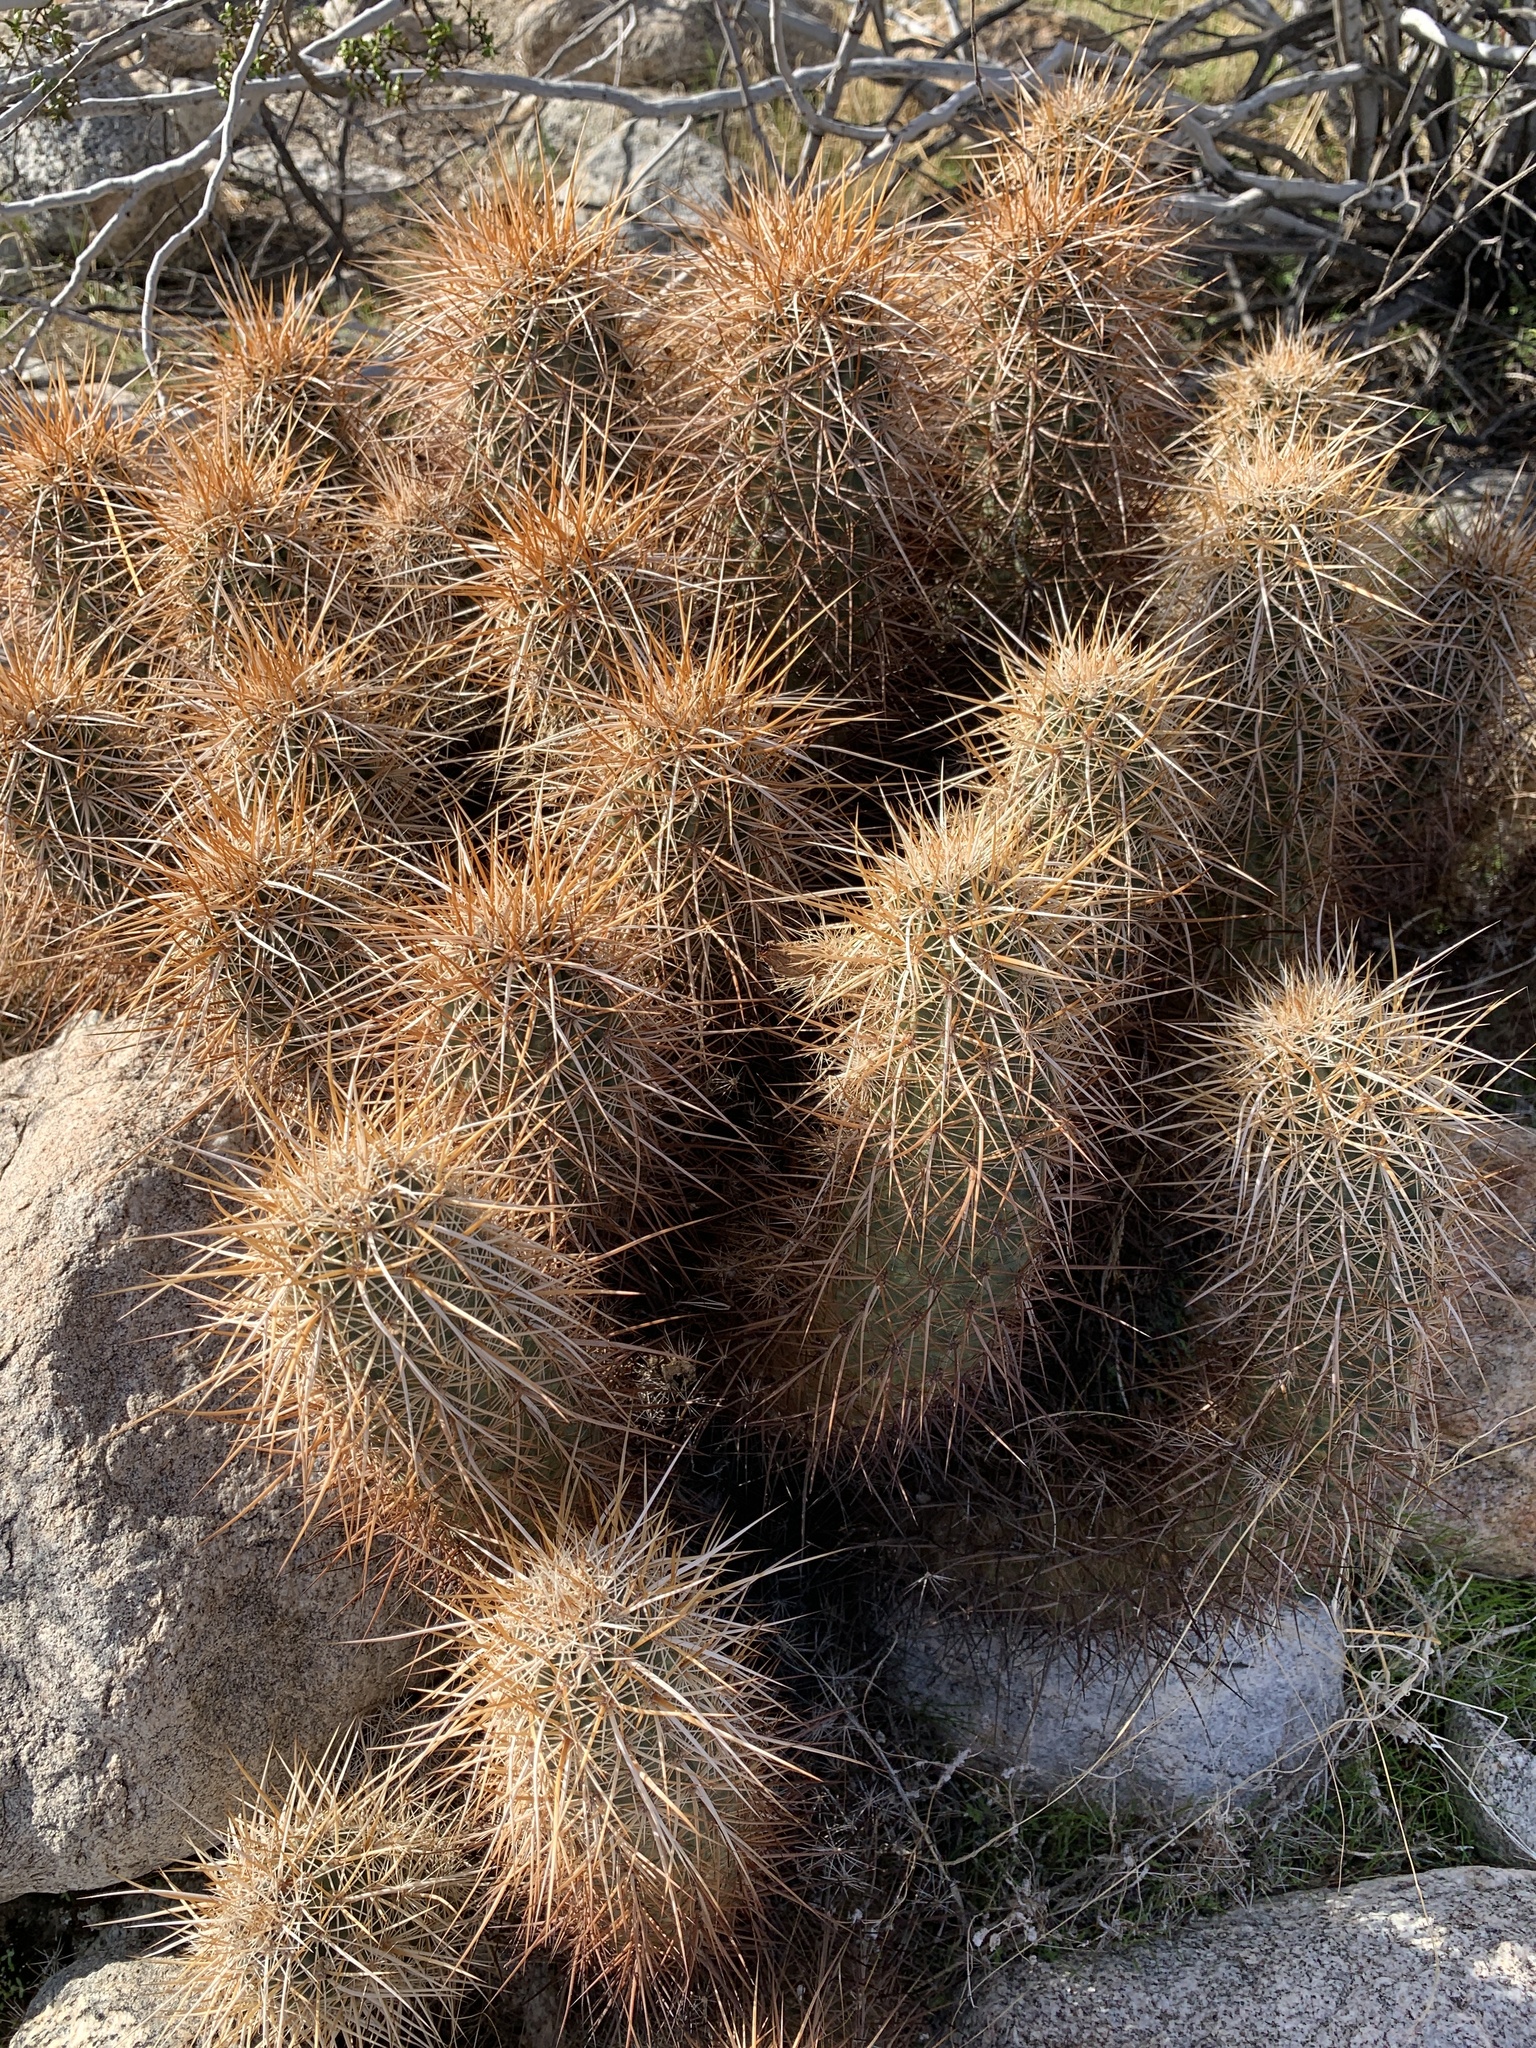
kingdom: Plantae
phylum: Tracheophyta
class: Magnoliopsida
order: Caryophyllales
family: Cactaceae
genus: Echinocereus
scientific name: Echinocereus engelmannii
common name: Engelmann's hedgehog cactus
